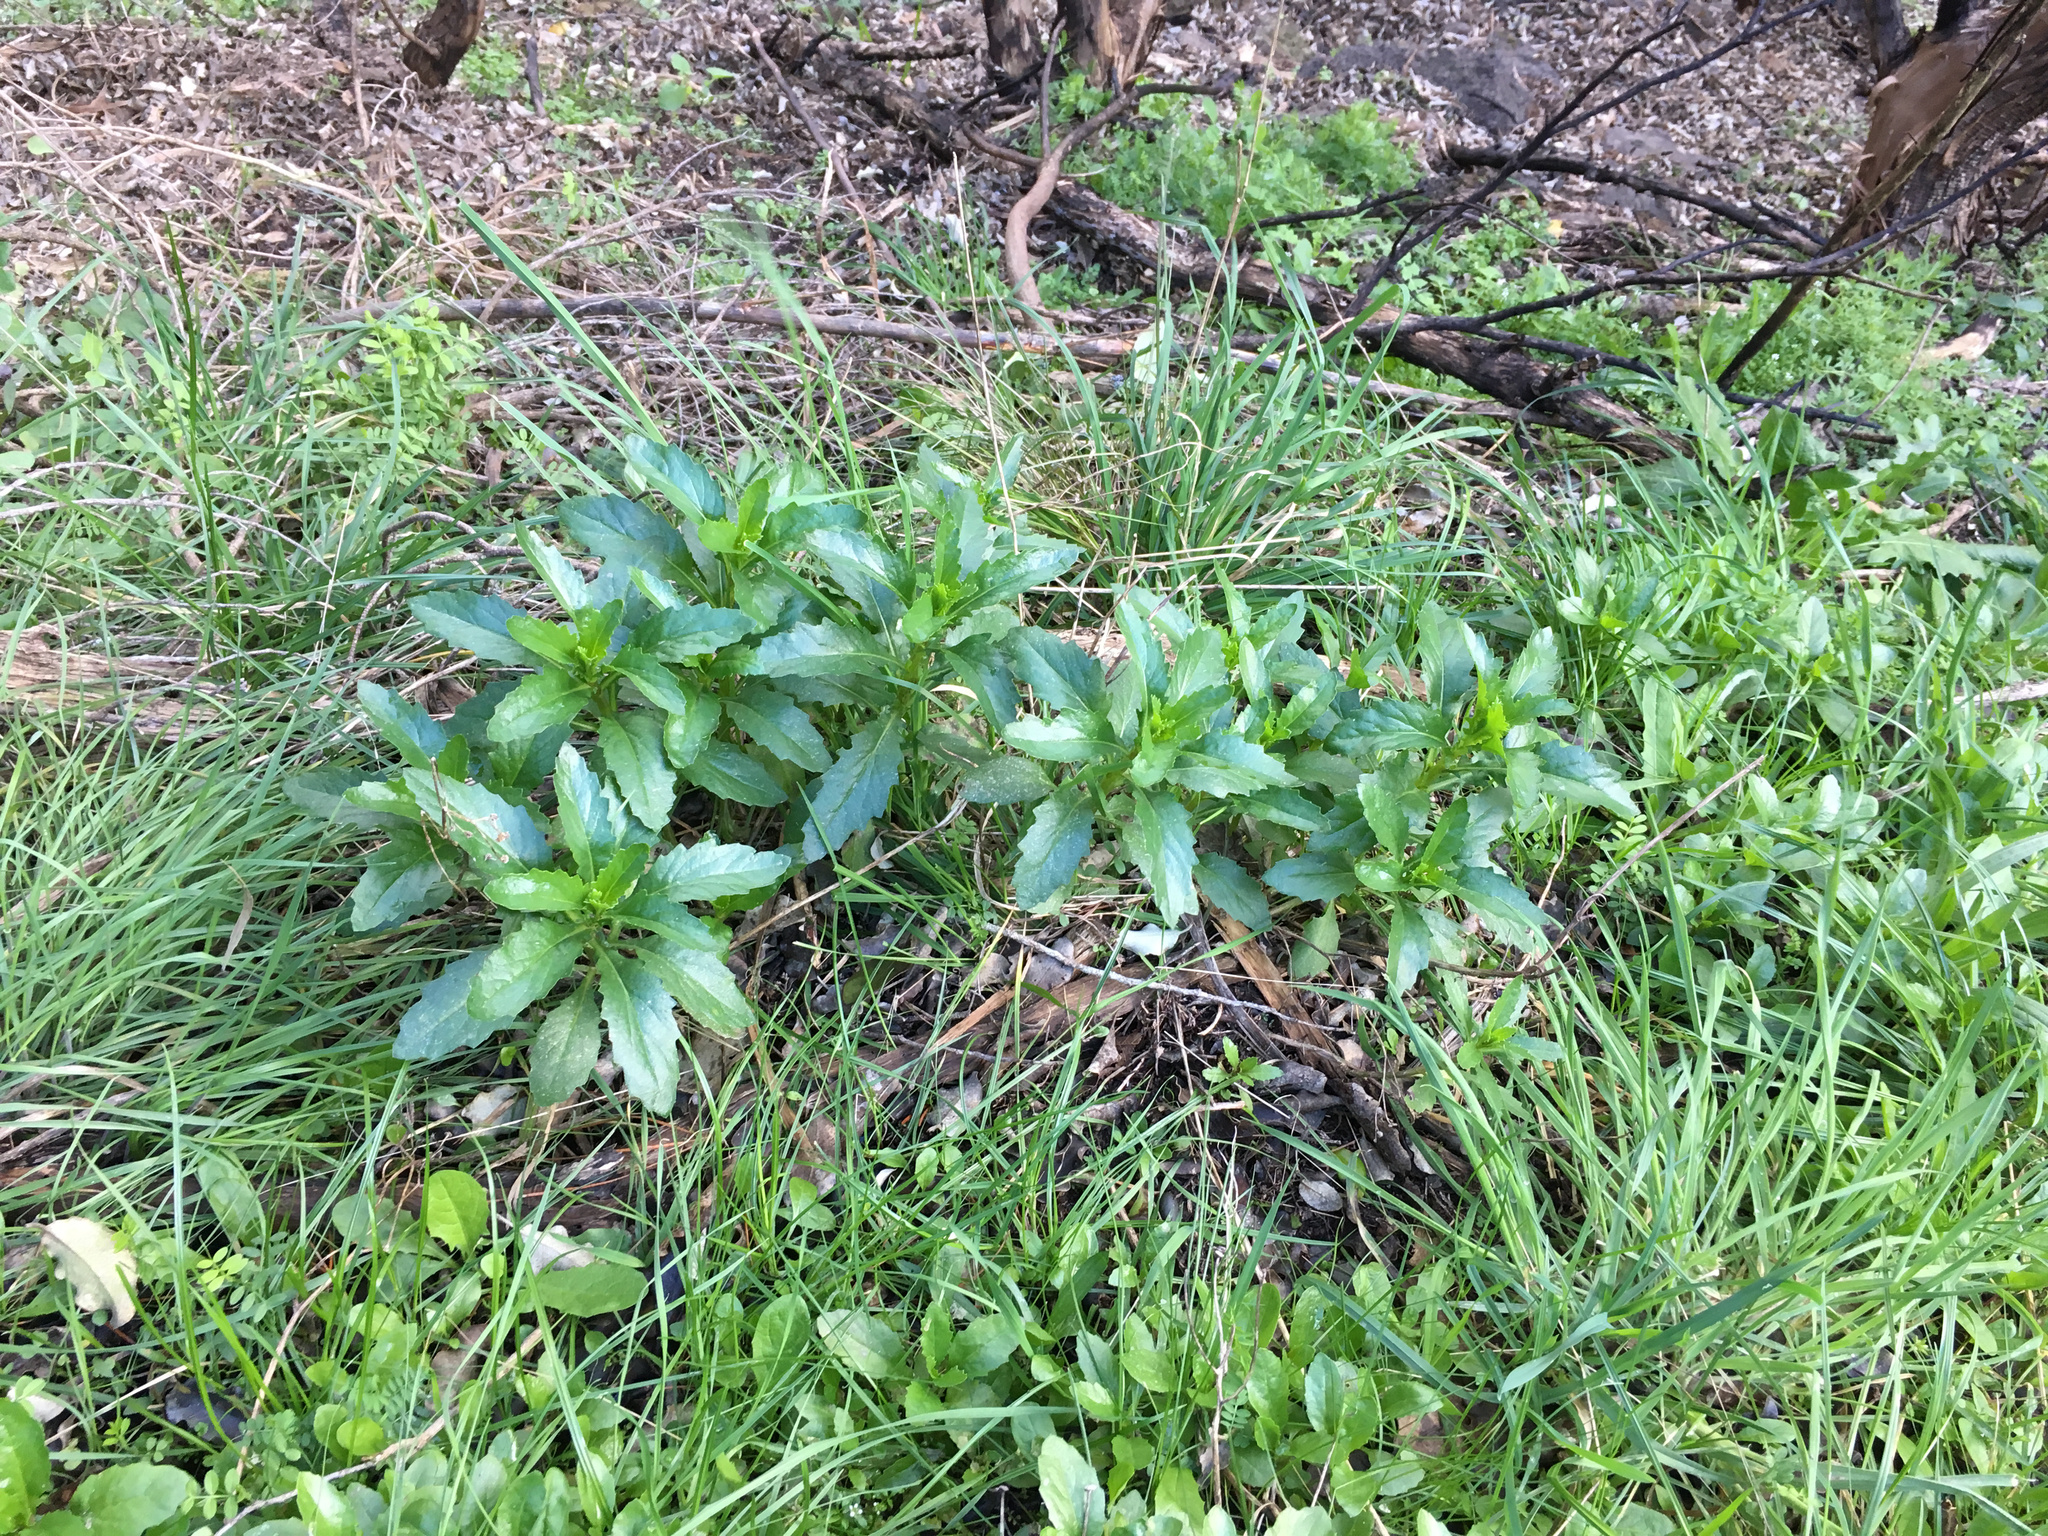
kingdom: Plantae
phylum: Tracheophyta
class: Magnoliopsida
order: Asterales
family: Asteraceae
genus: Senecio
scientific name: Senecio matatini
